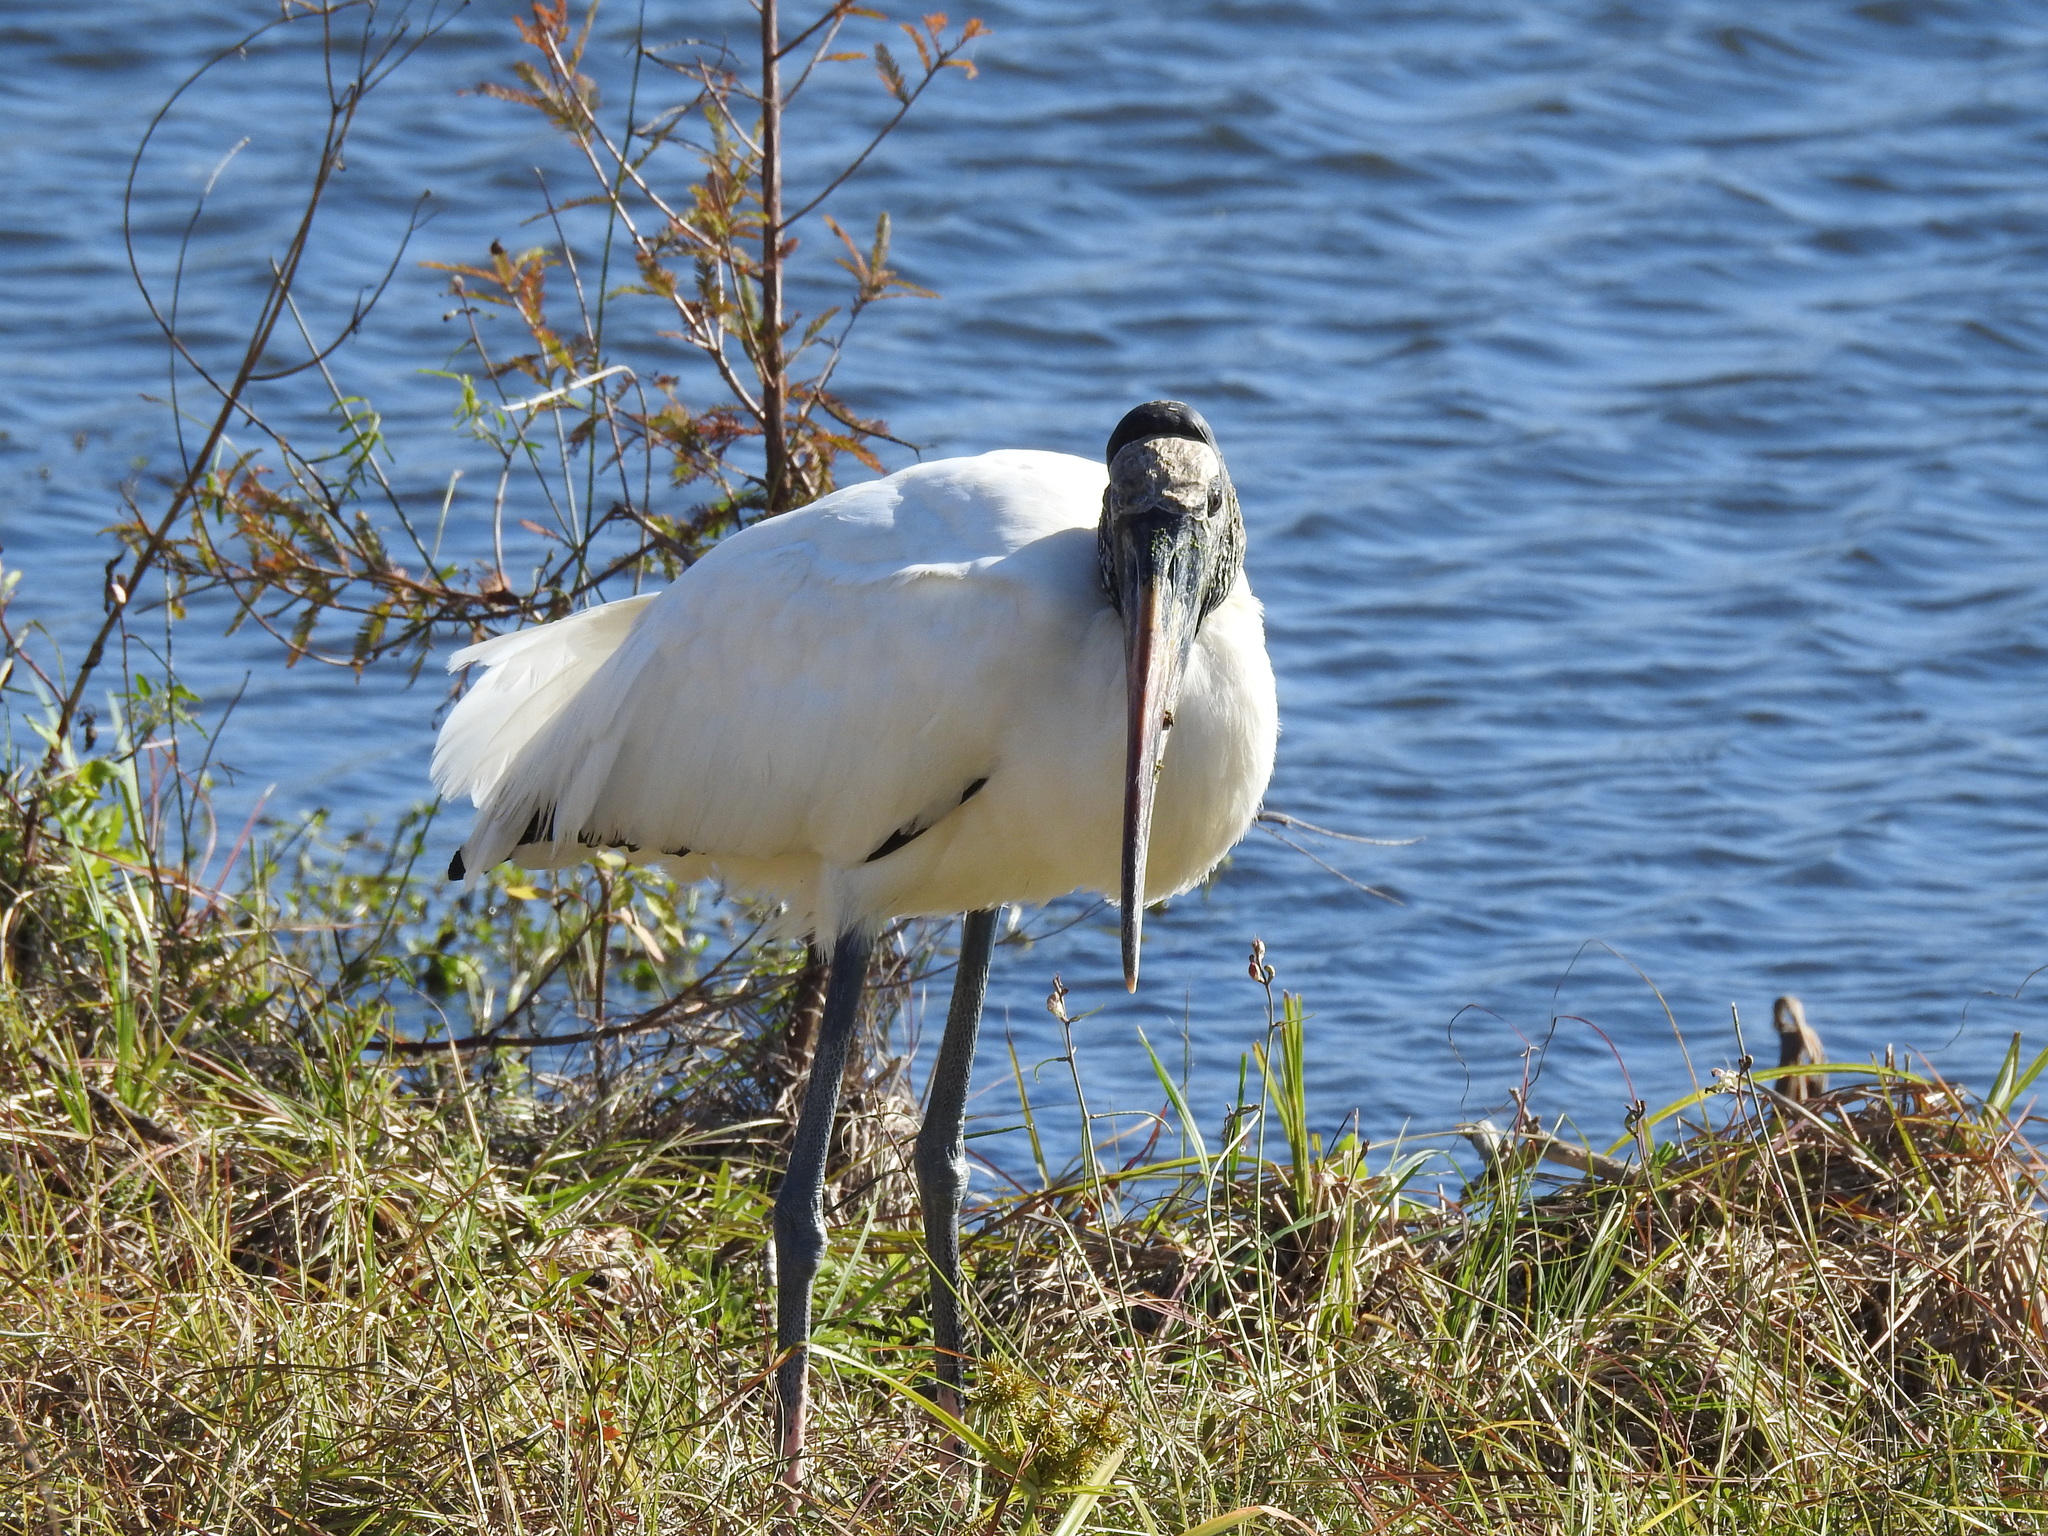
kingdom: Animalia
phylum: Chordata
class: Aves
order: Ciconiiformes
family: Ciconiidae
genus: Mycteria
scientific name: Mycteria americana
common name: Wood stork
